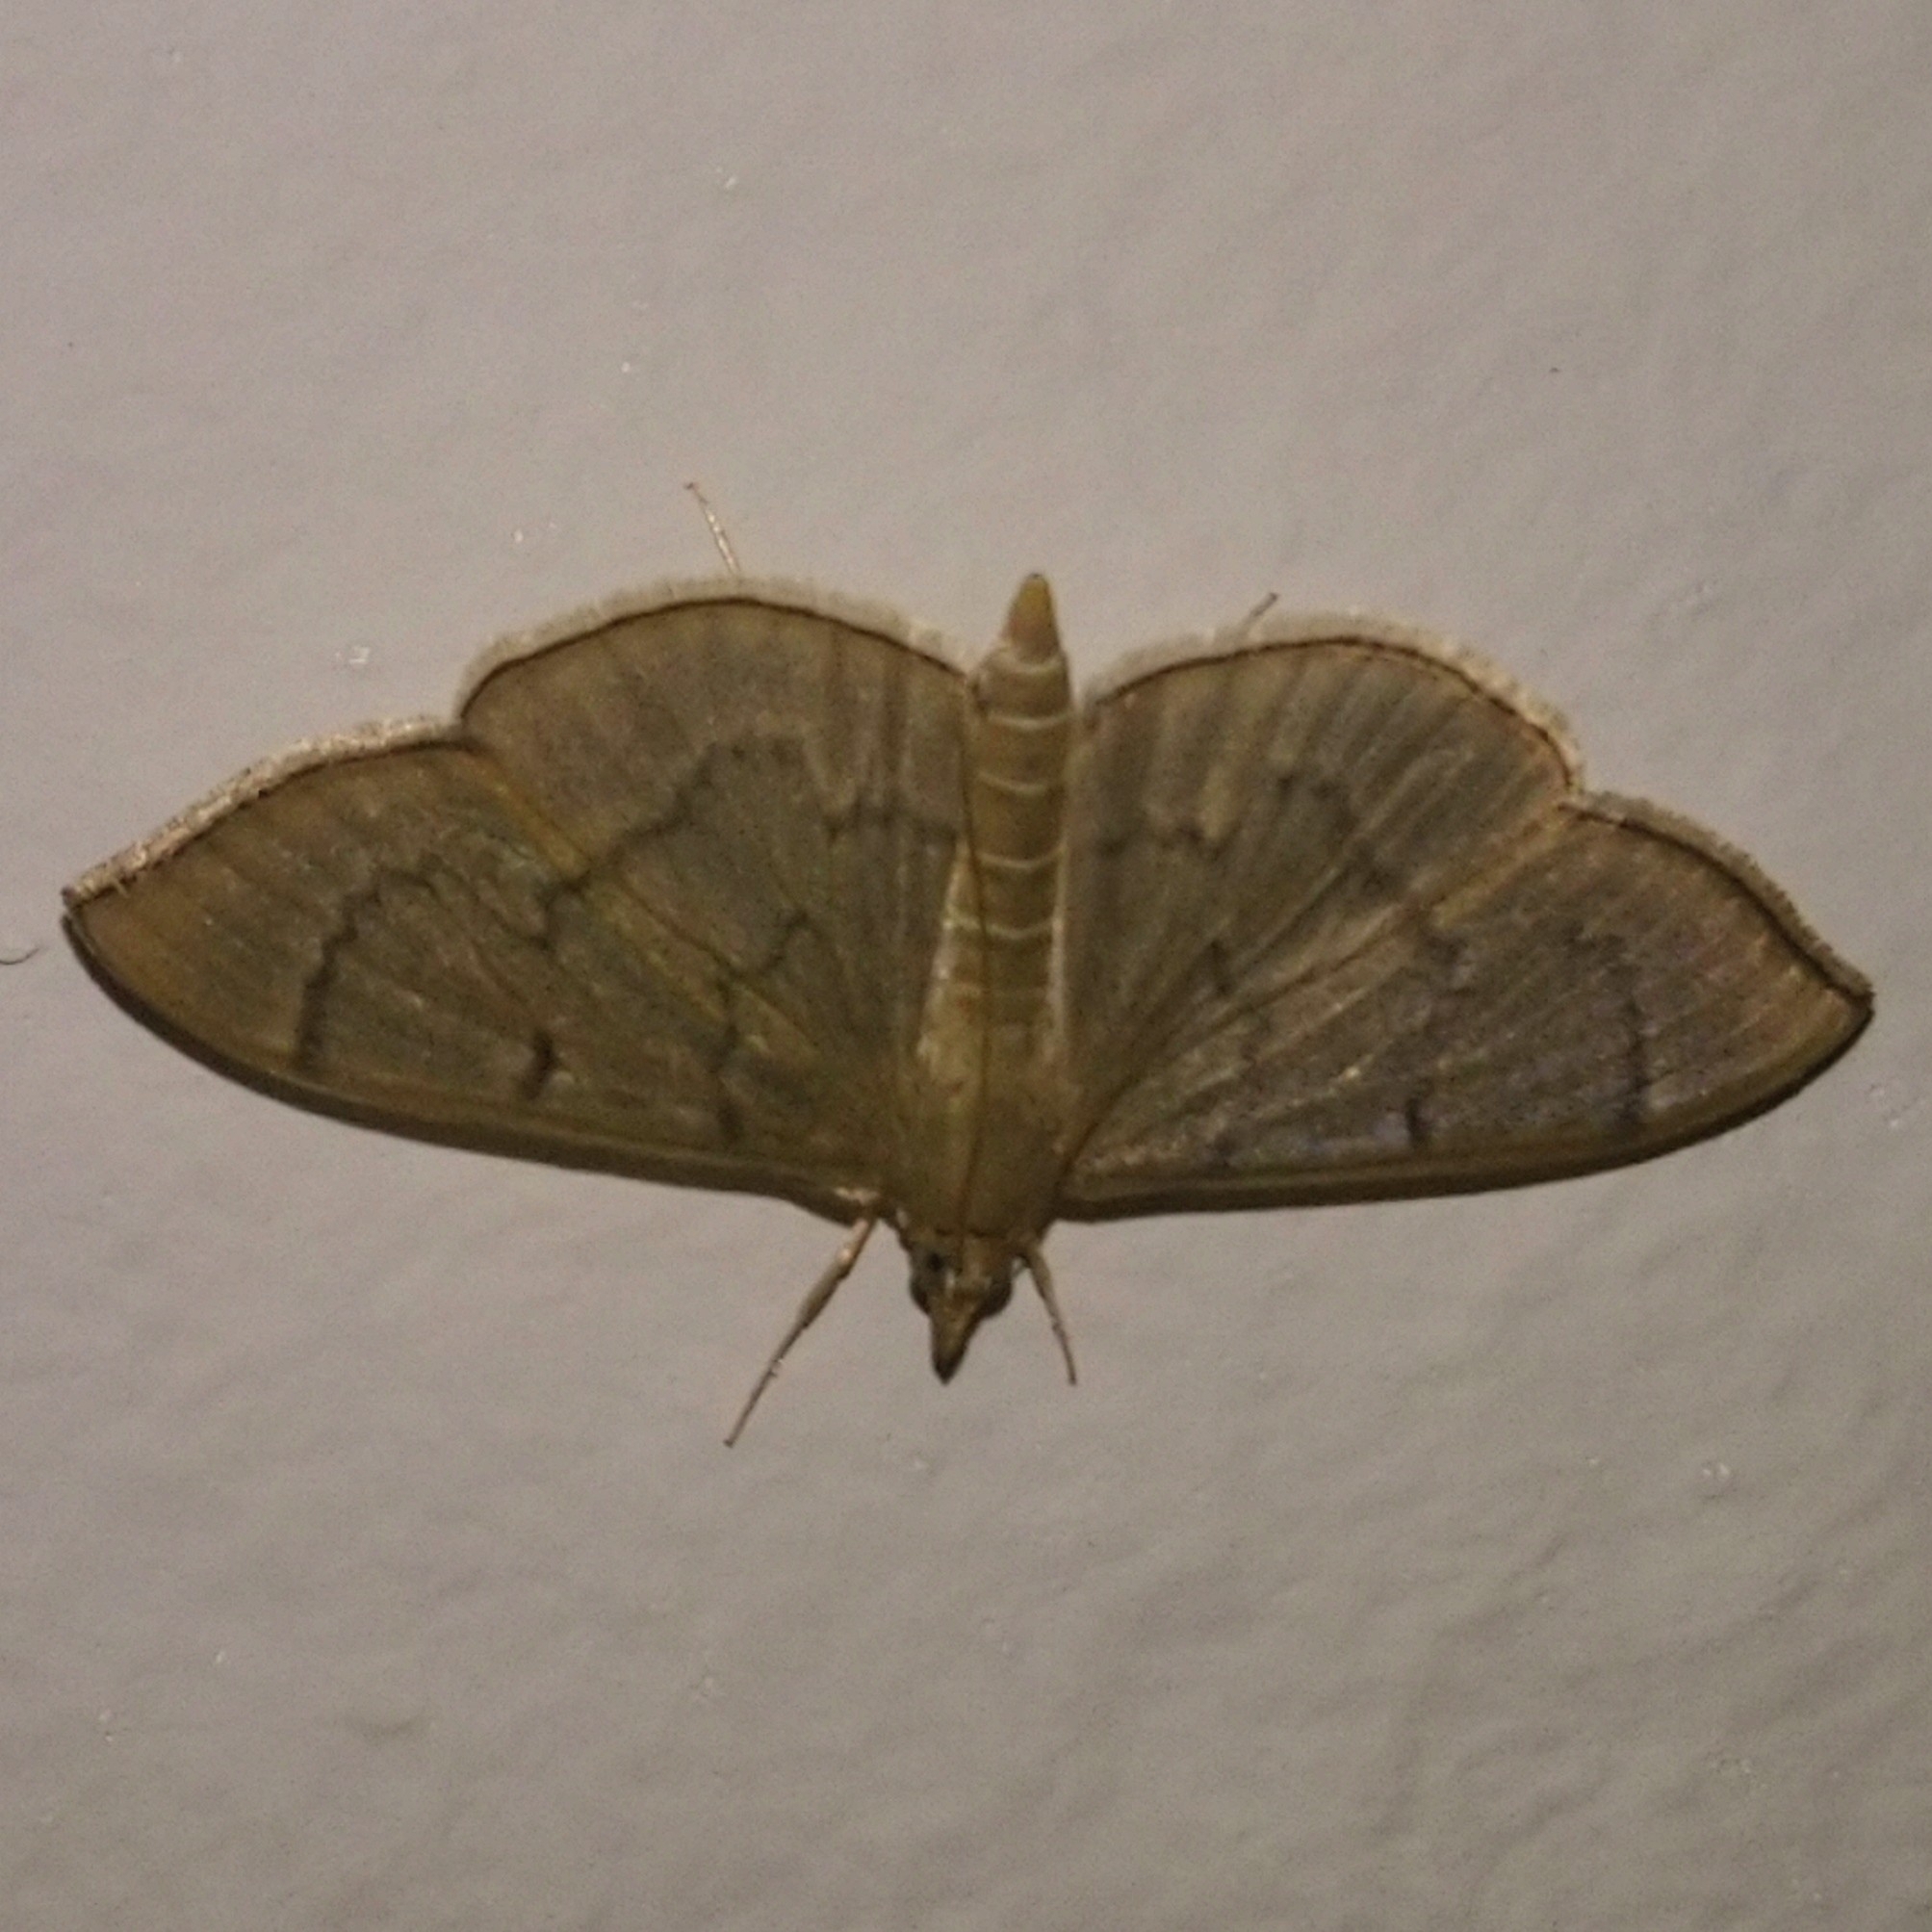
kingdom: Animalia
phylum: Arthropoda
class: Insecta
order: Lepidoptera
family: Crambidae
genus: Lamprophaia
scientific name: Lamprophaia ablactalis
